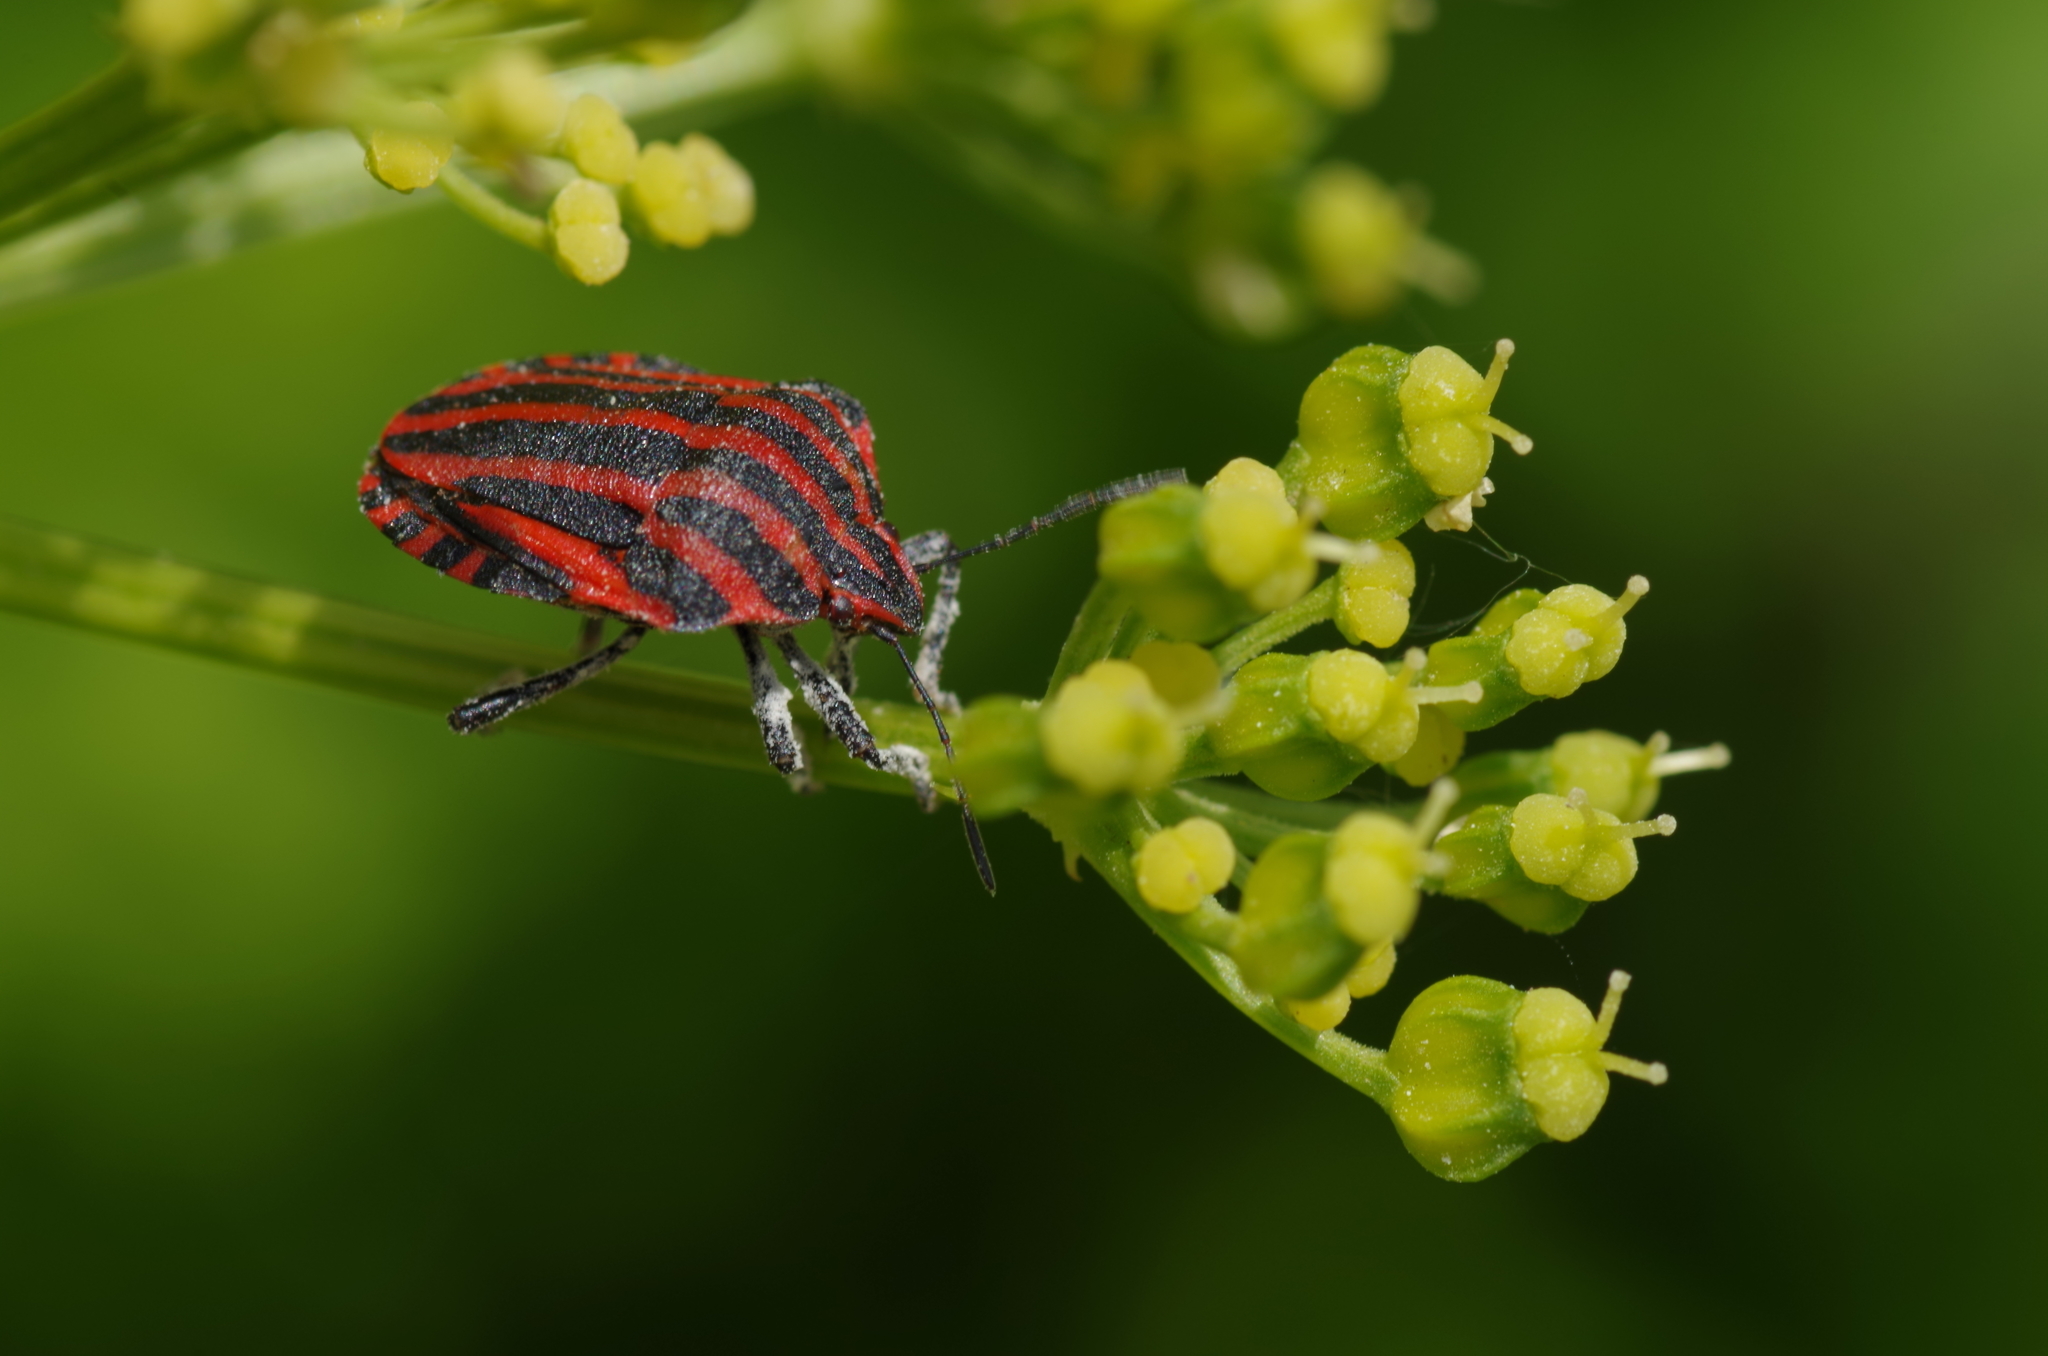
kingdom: Animalia
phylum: Arthropoda
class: Insecta
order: Hemiptera
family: Pentatomidae
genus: Graphosoma
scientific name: Graphosoma italicum
